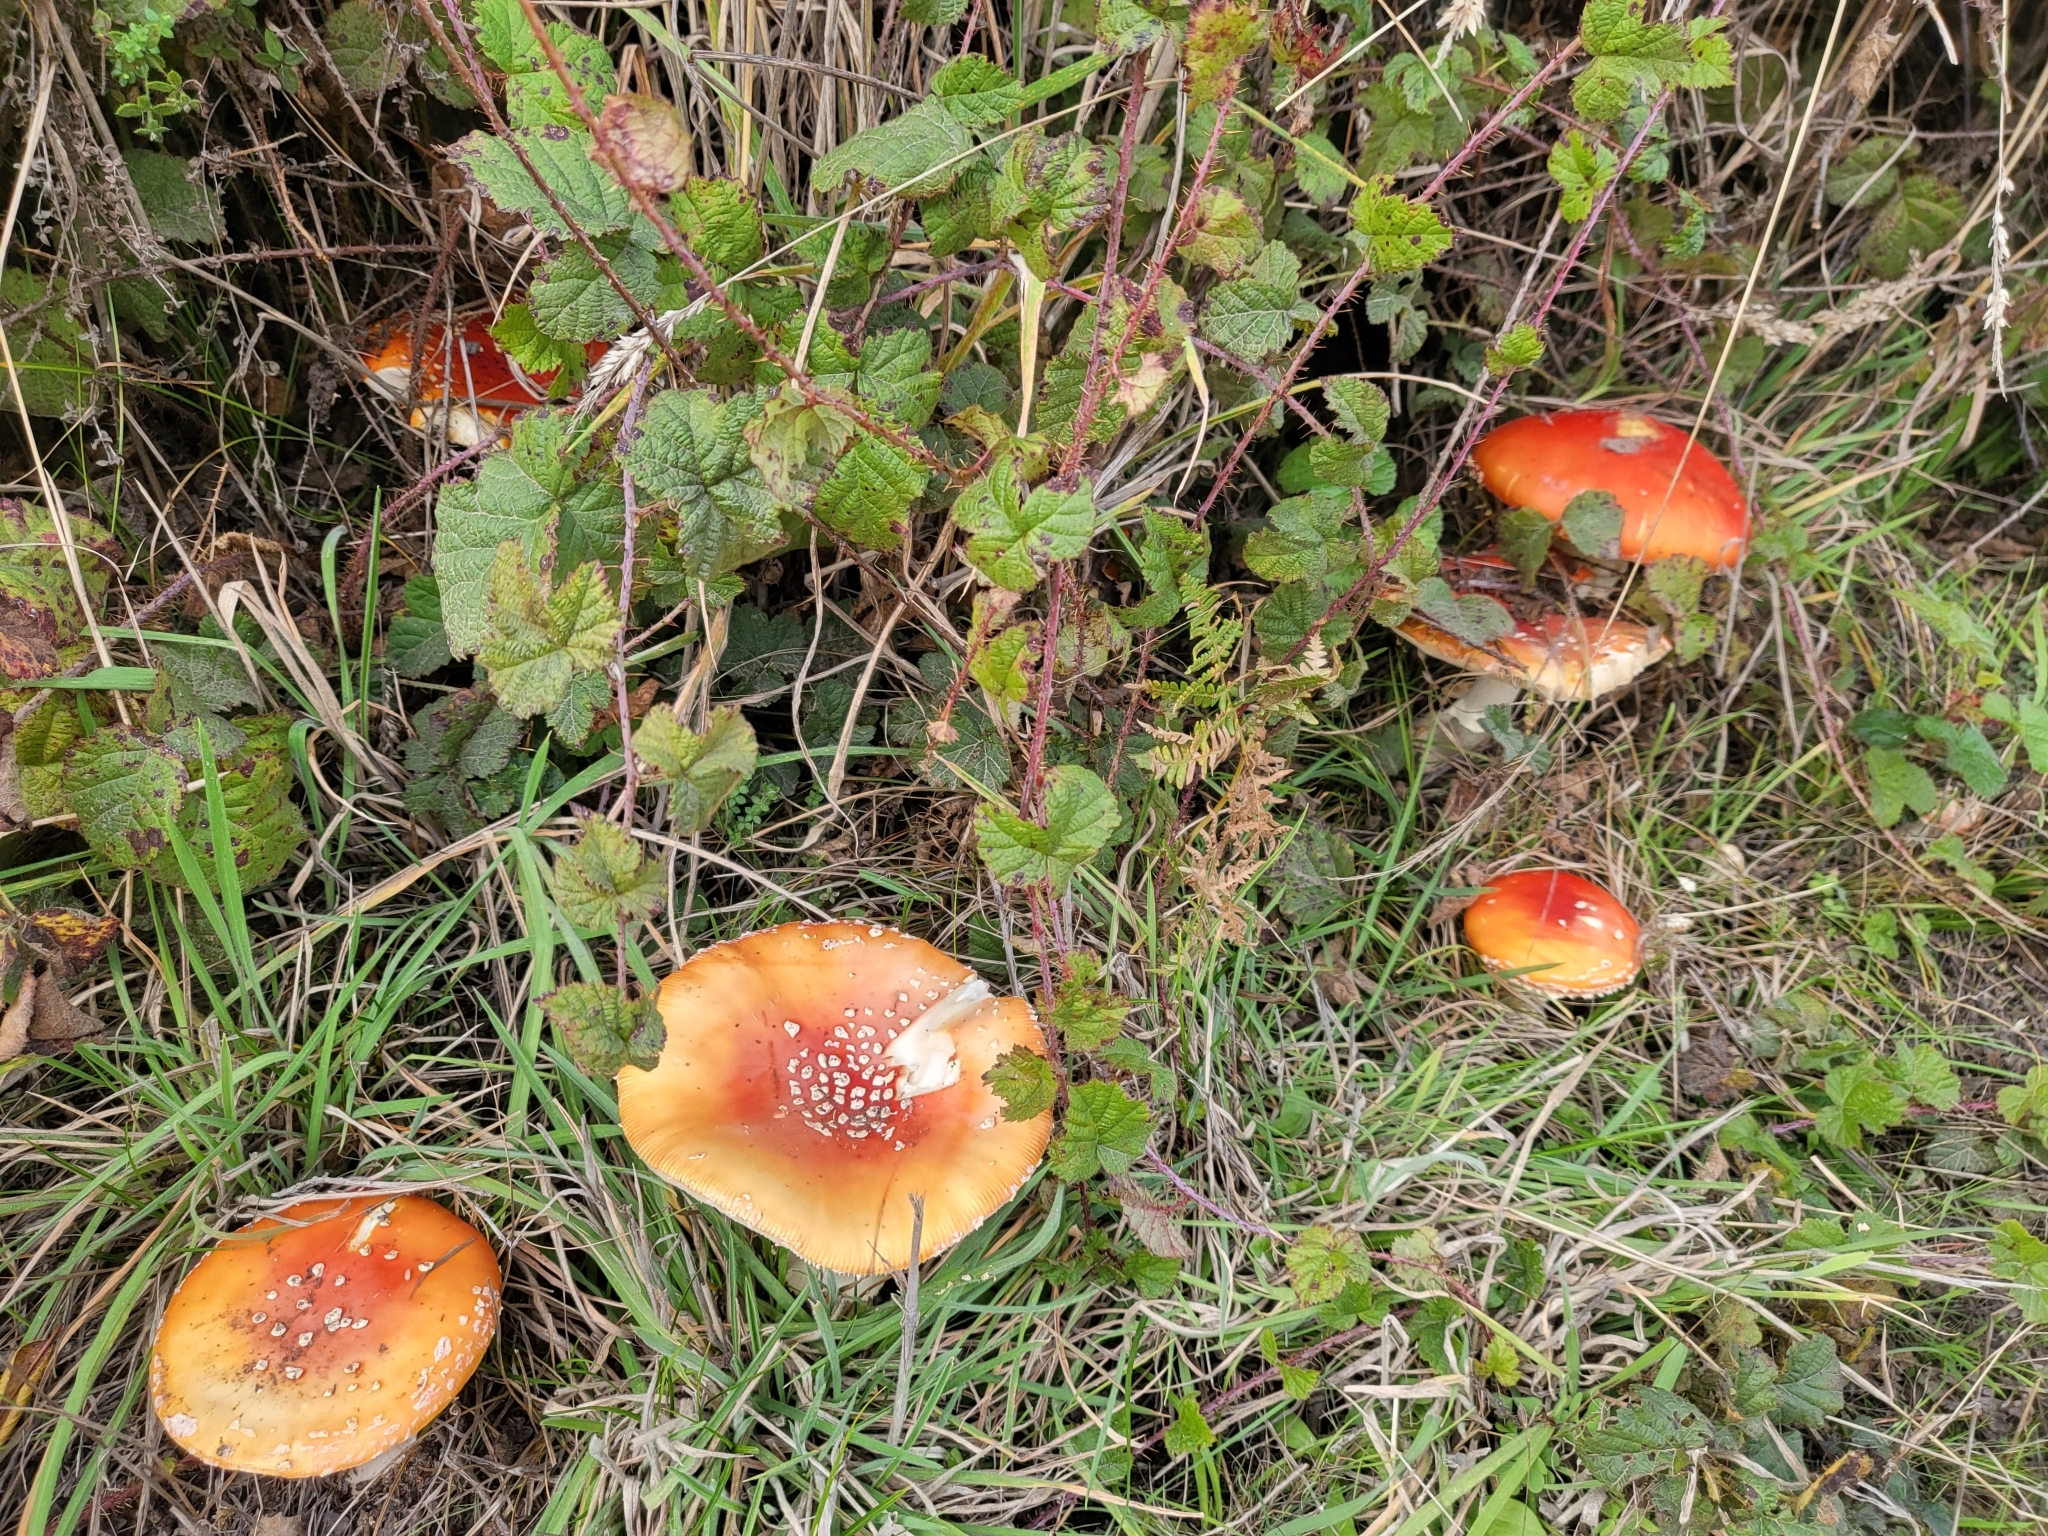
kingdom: Fungi
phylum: Basidiomycota
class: Agaricomycetes
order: Agaricales
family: Amanitaceae
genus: Amanita
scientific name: Amanita muscaria
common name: Fly agaric
